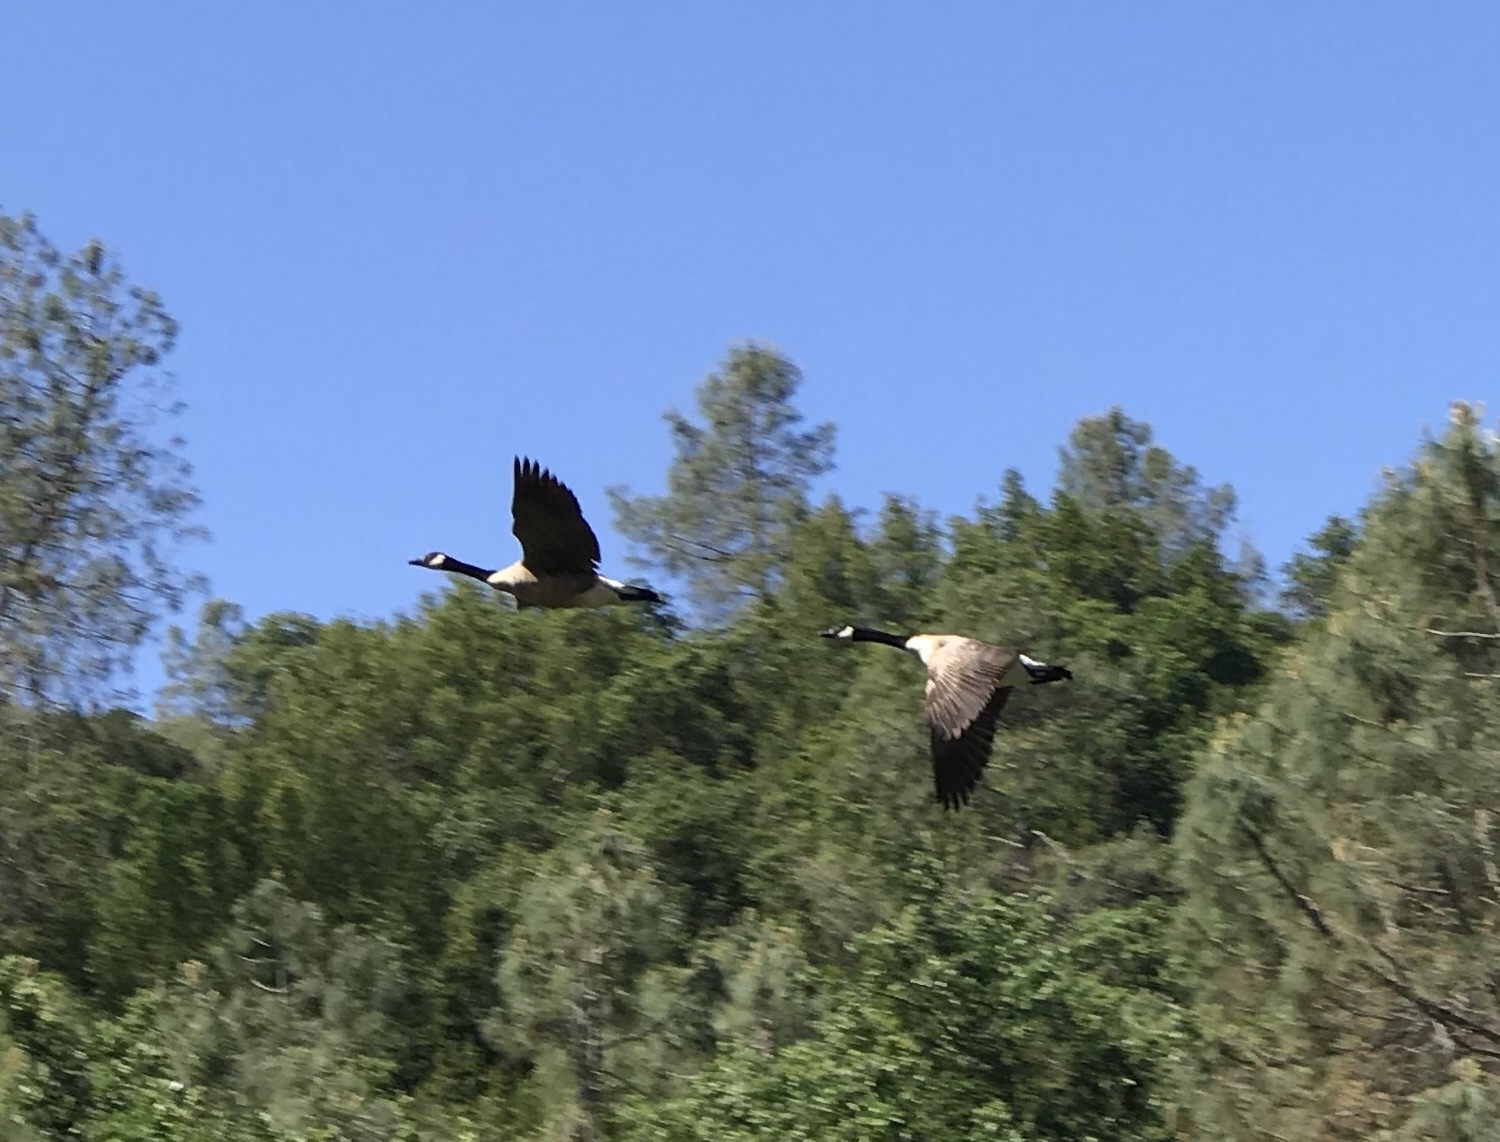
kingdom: Animalia
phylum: Chordata
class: Aves
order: Anseriformes
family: Anatidae
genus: Branta
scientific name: Branta canadensis
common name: Canada goose
